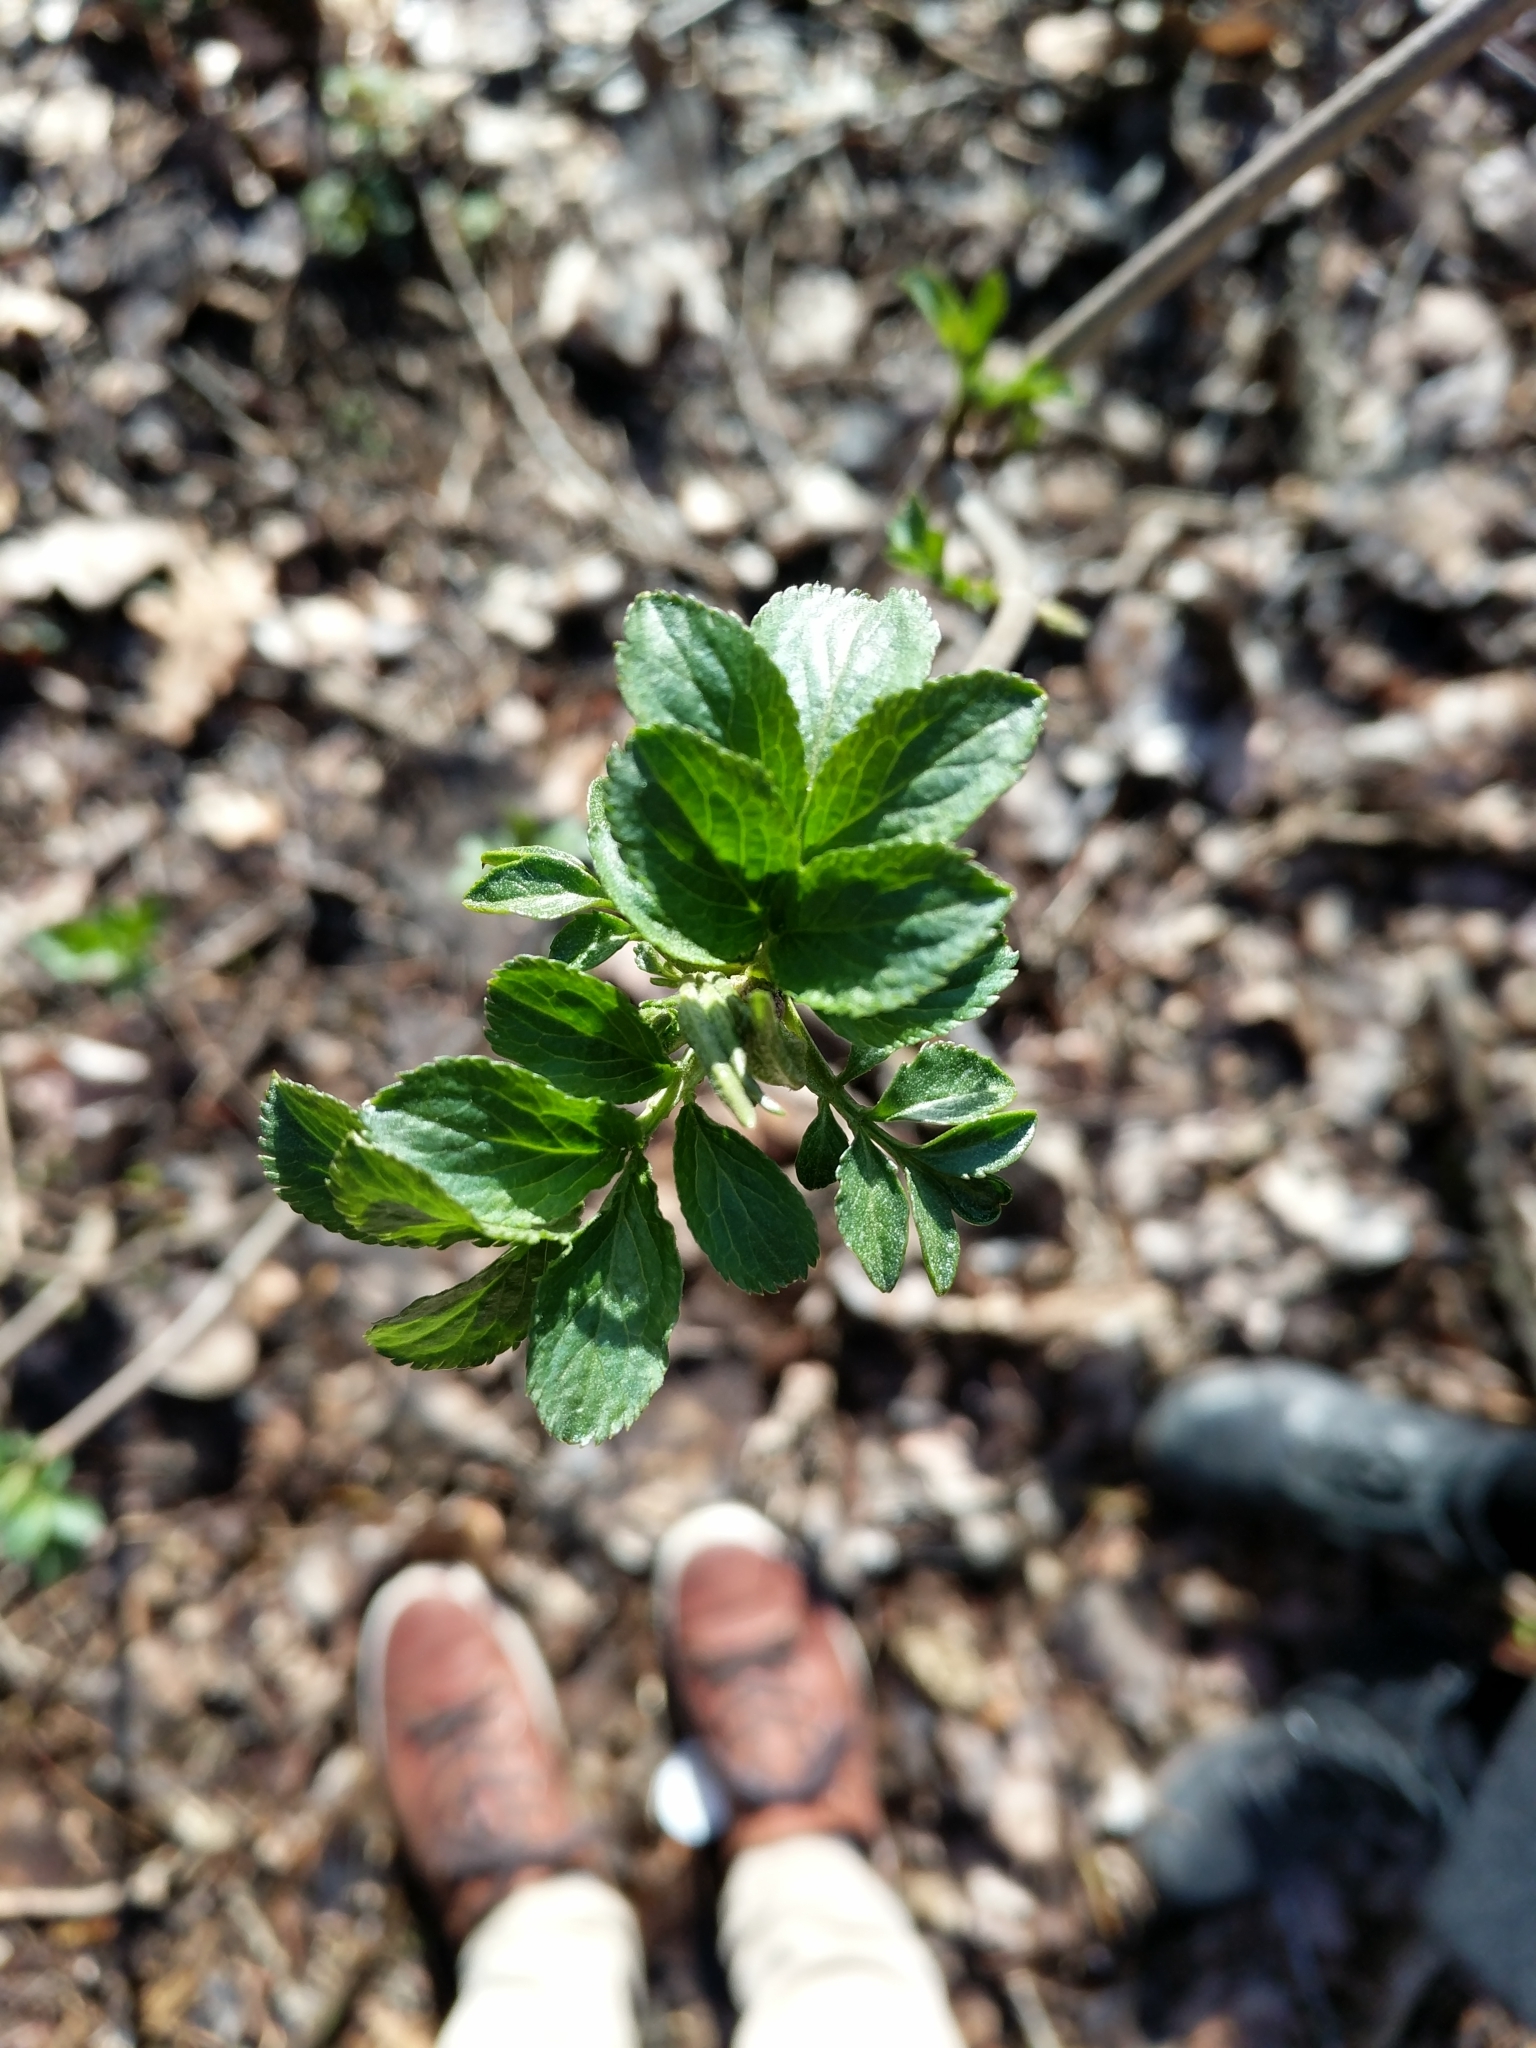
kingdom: Plantae
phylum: Tracheophyta
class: Magnoliopsida
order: Dipsacales
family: Viburnaceae
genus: Sambucus
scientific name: Sambucus nigra
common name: Elder
